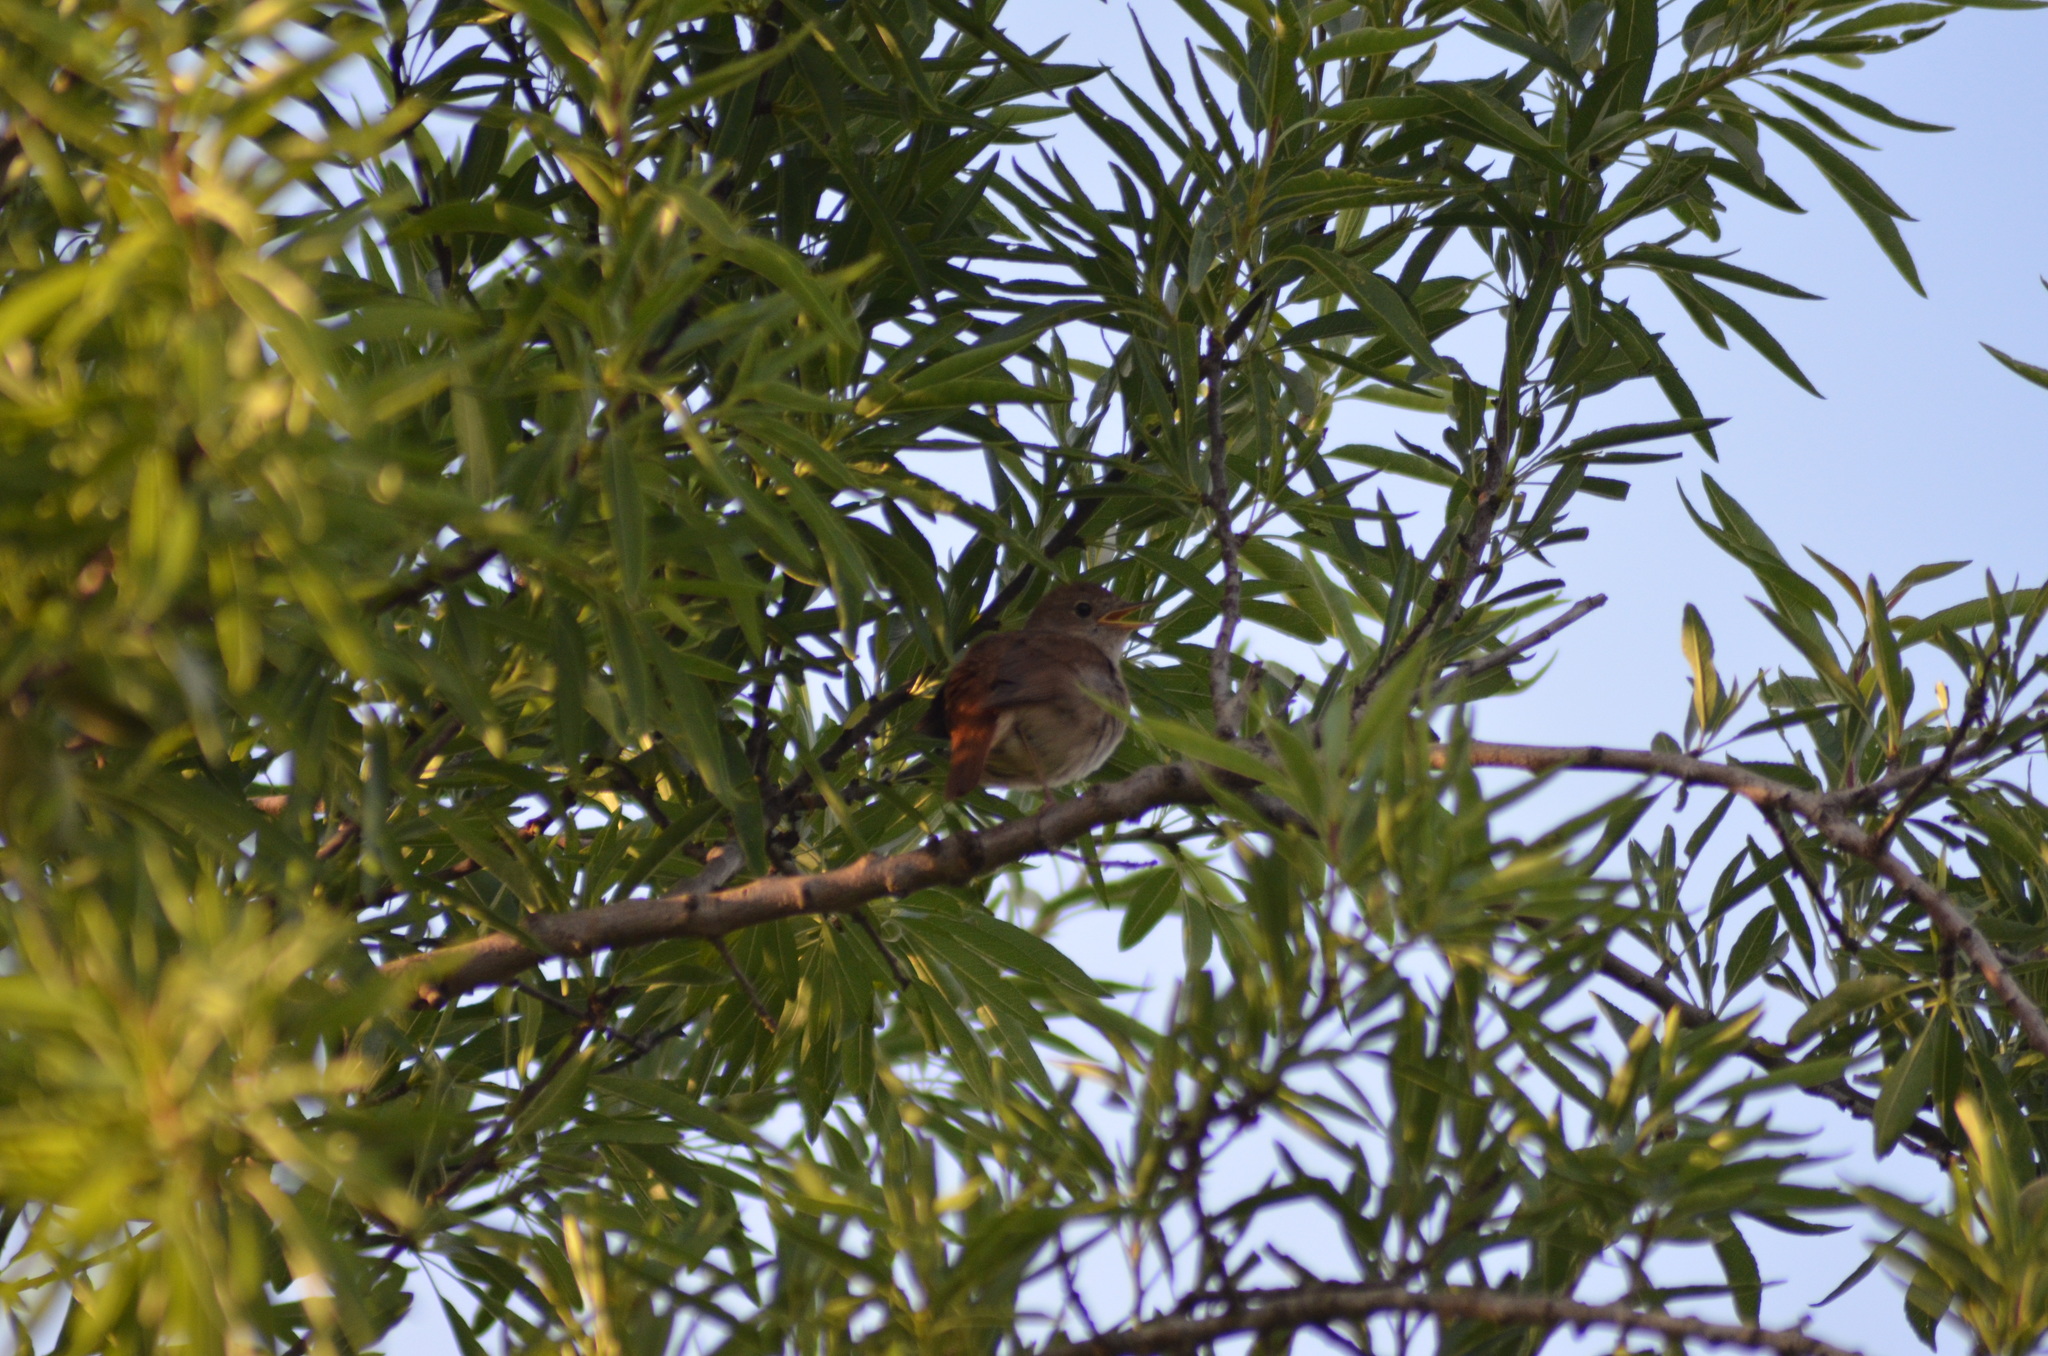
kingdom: Animalia
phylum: Chordata
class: Aves
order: Passeriformes
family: Muscicapidae
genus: Luscinia
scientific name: Luscinia megarhynchos
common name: Common nightingale
